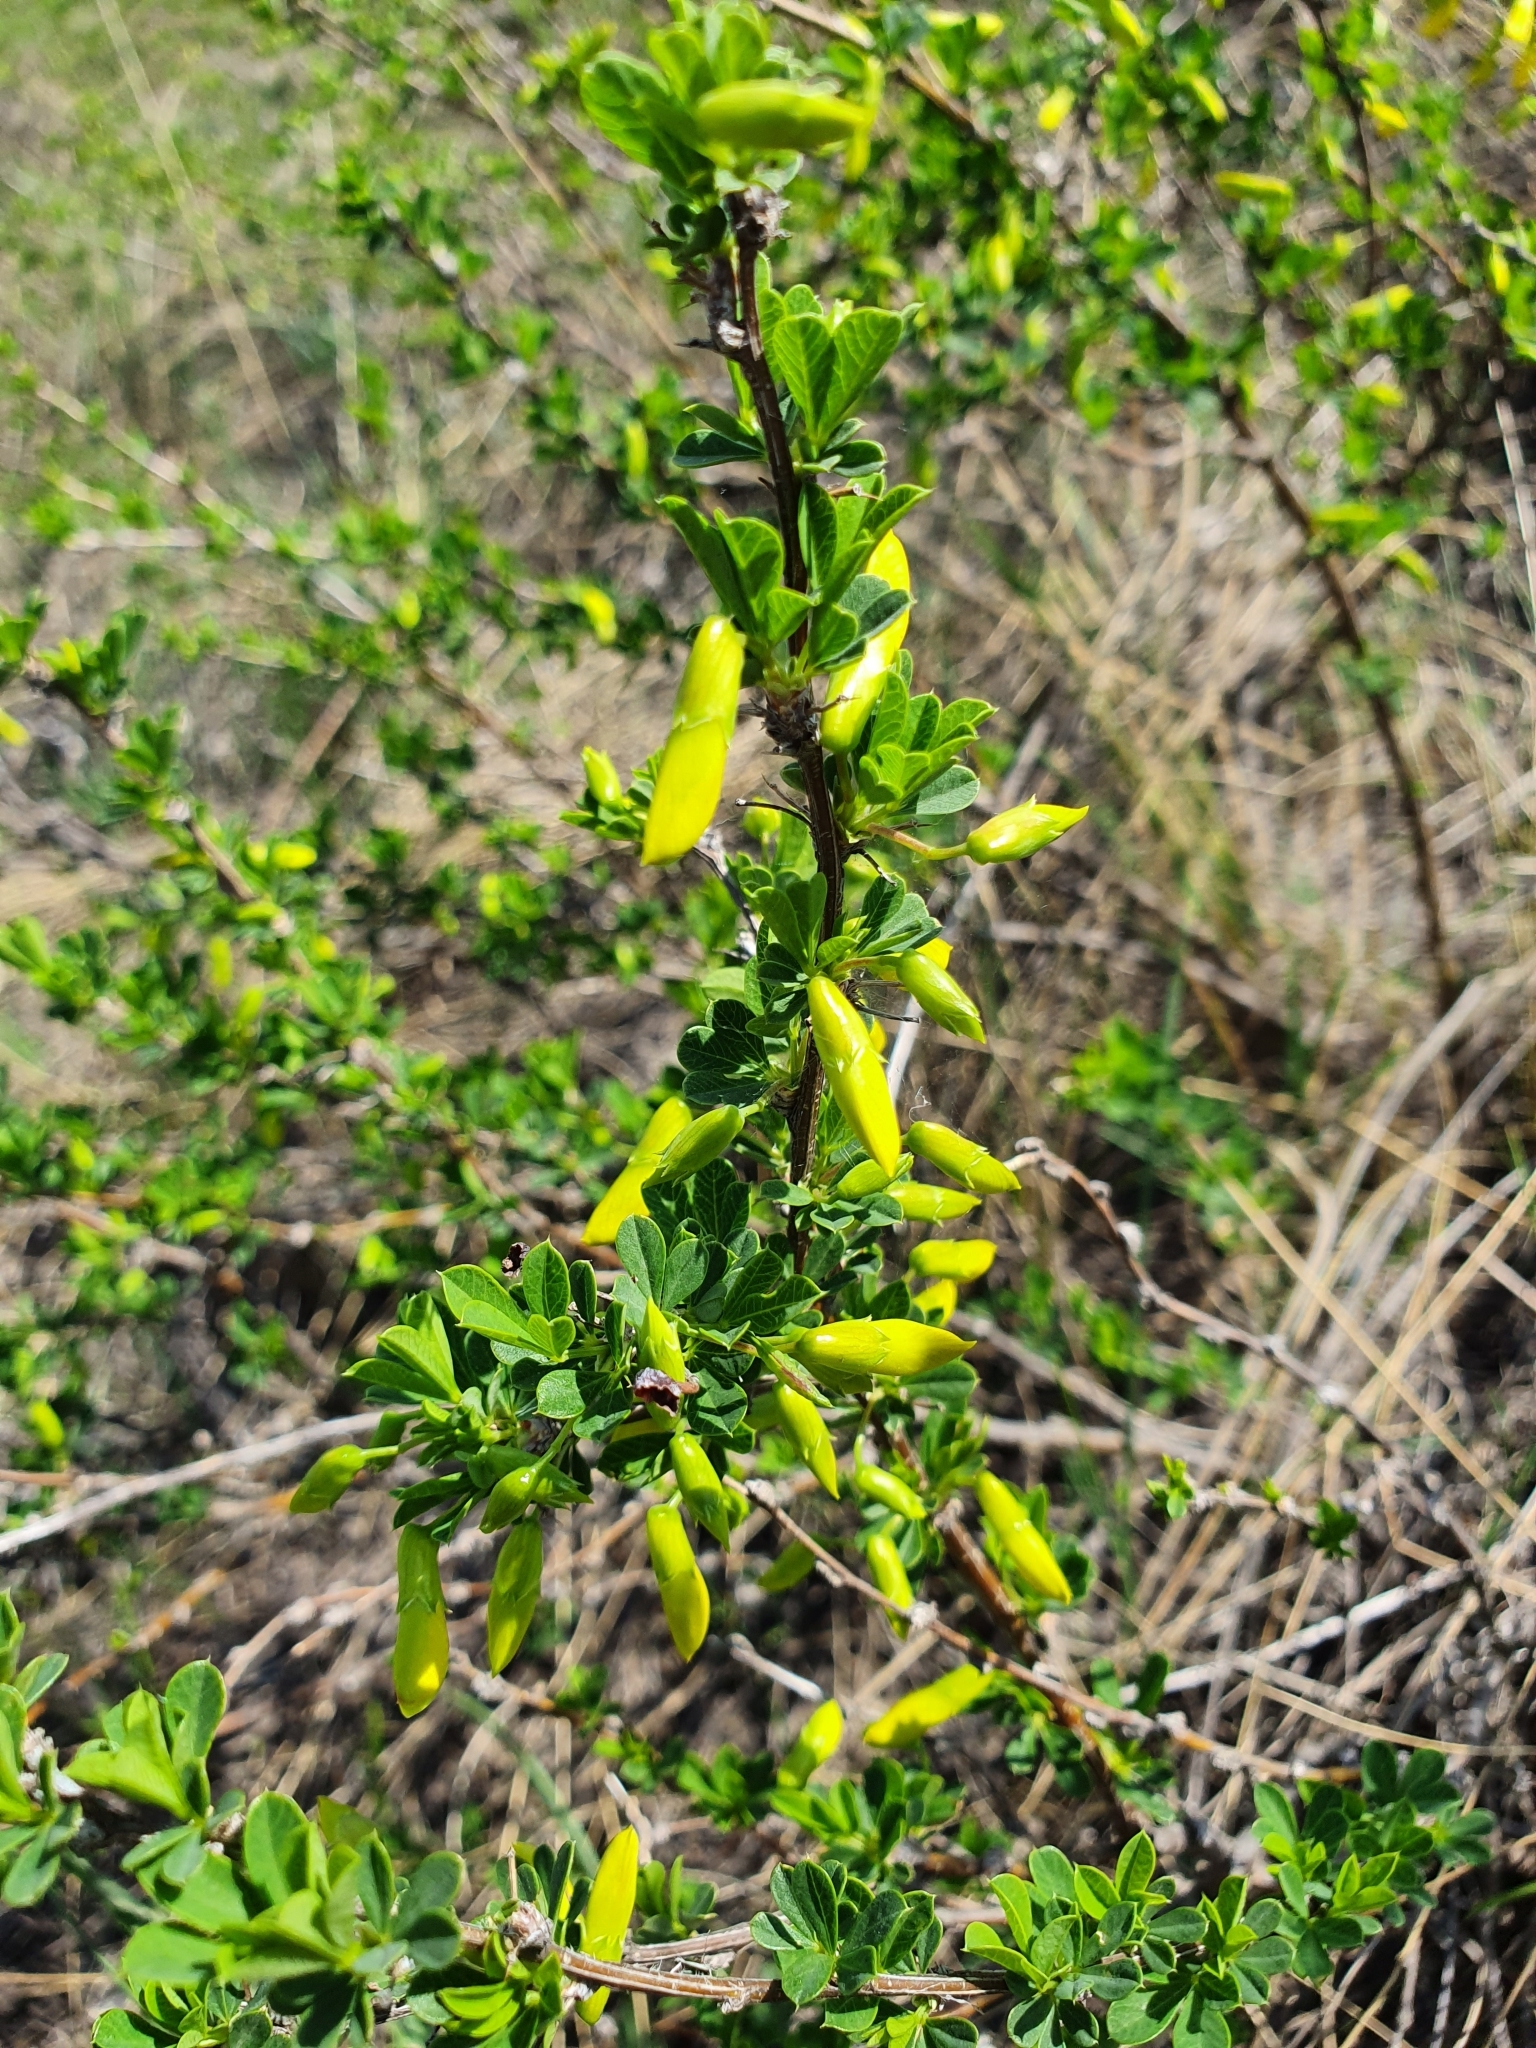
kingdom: Plantae
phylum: Tracheophyta
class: Magnoliopsida
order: Fabales
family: Fabaceae
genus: Caragana
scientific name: Caragana frutex
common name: Russian peashrub
